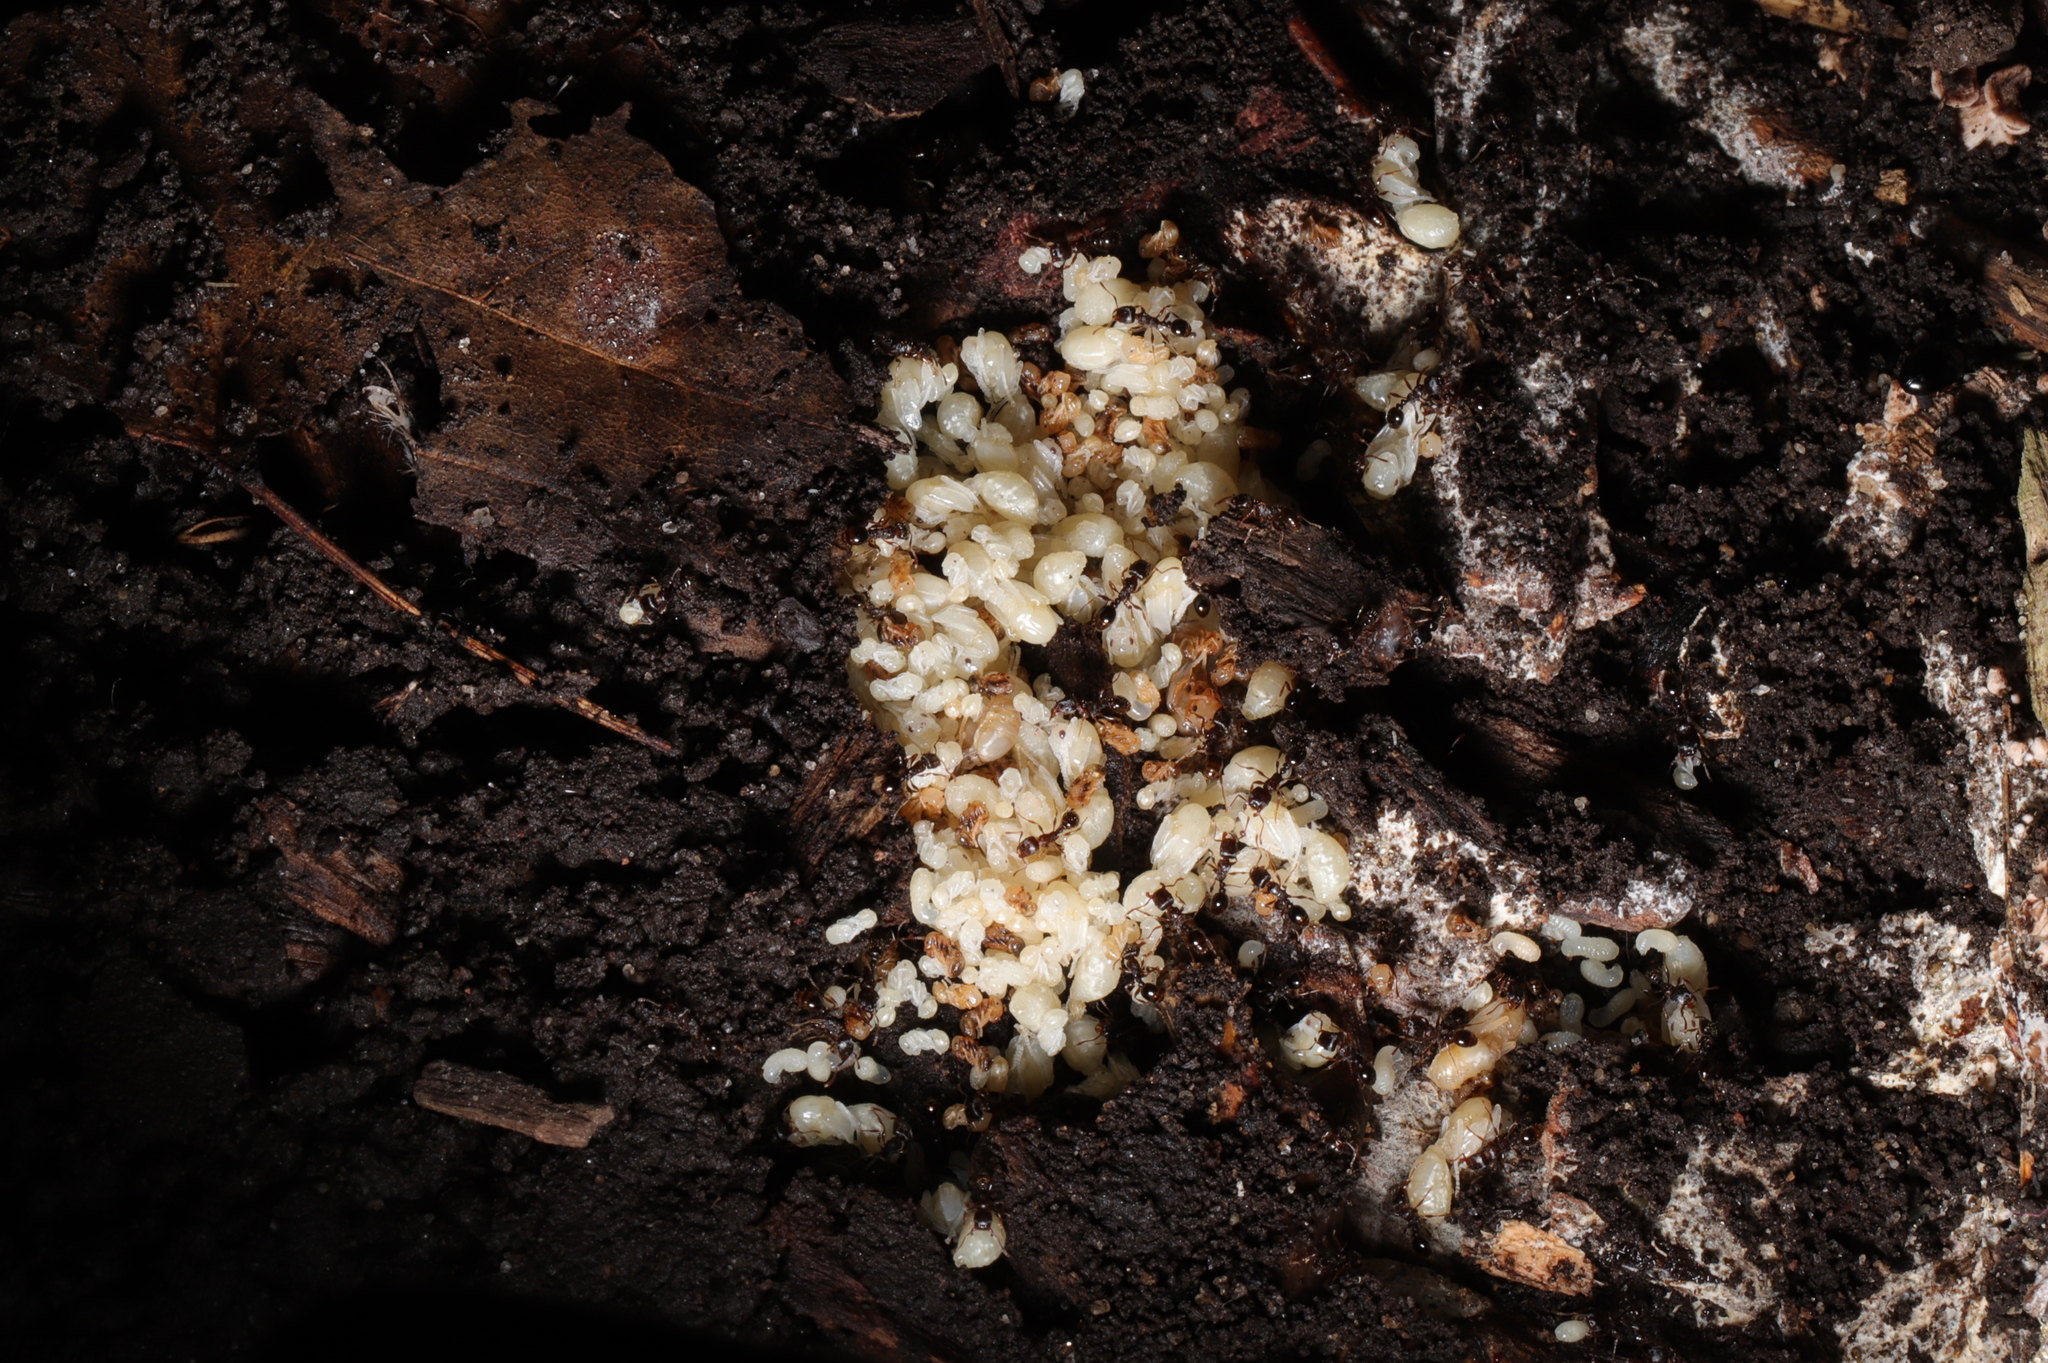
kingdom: Animalia
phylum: Arthropoda
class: Insecta
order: Hymenoptera
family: Formicidae
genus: Tetramorium
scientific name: Tetramorium immigrans
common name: Pavement ant
